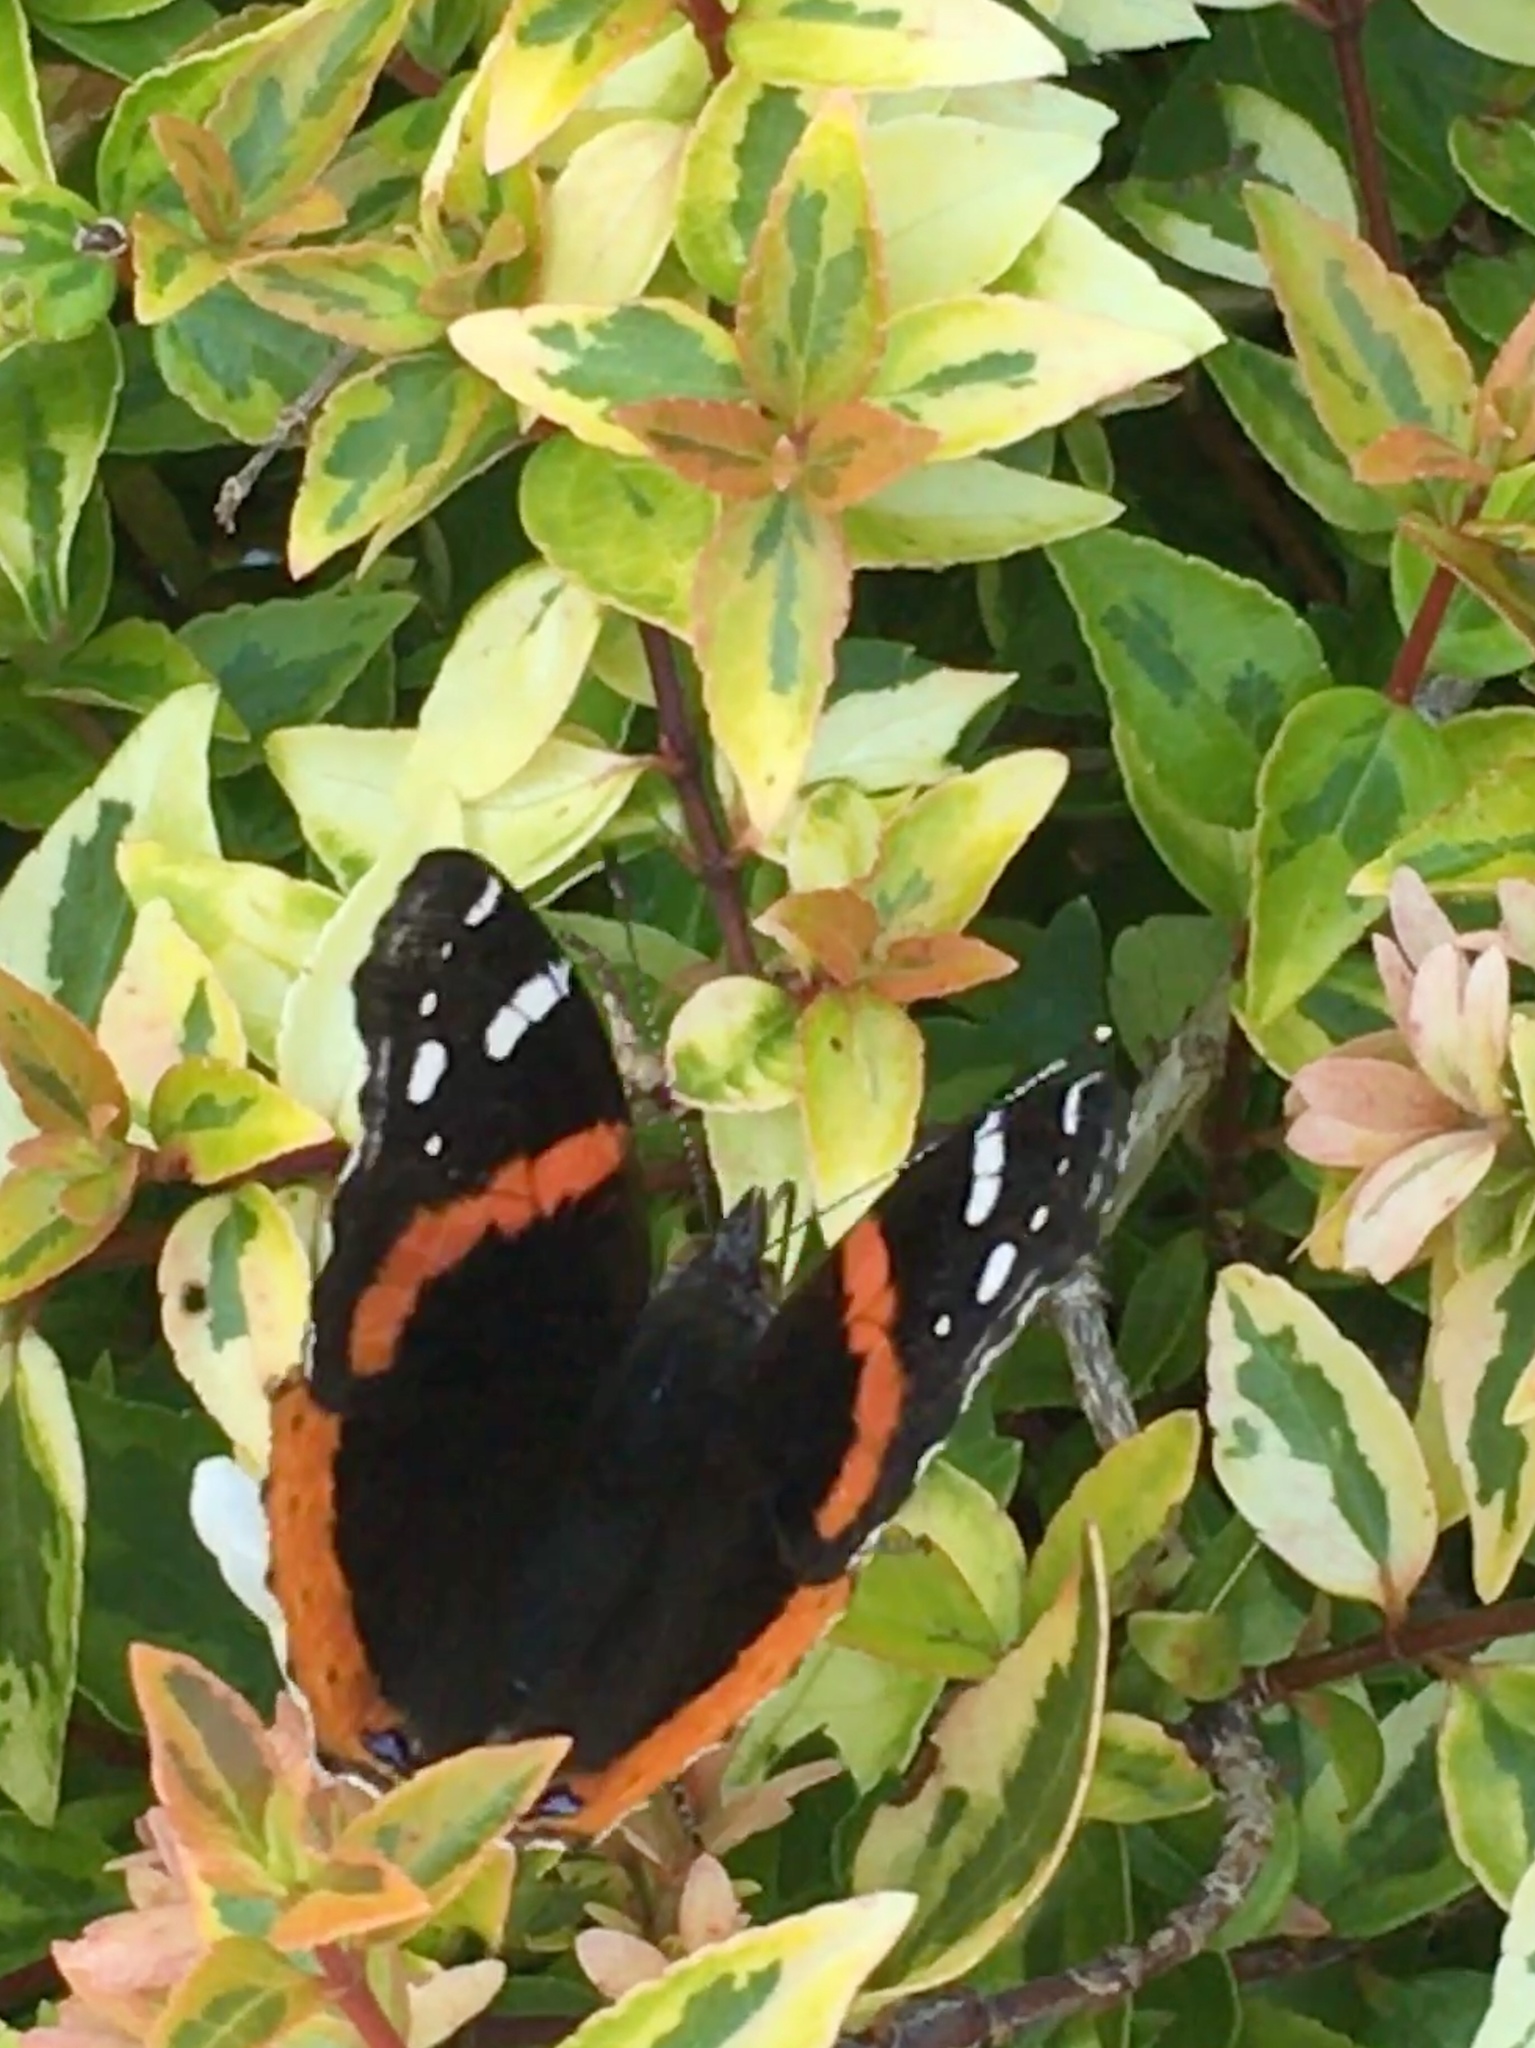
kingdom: Animalia
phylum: Arthropoda
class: Insecta
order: Lepidoptera
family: Nymphalidae
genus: Vanessa
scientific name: Vanessa atalanta
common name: Red admiral
